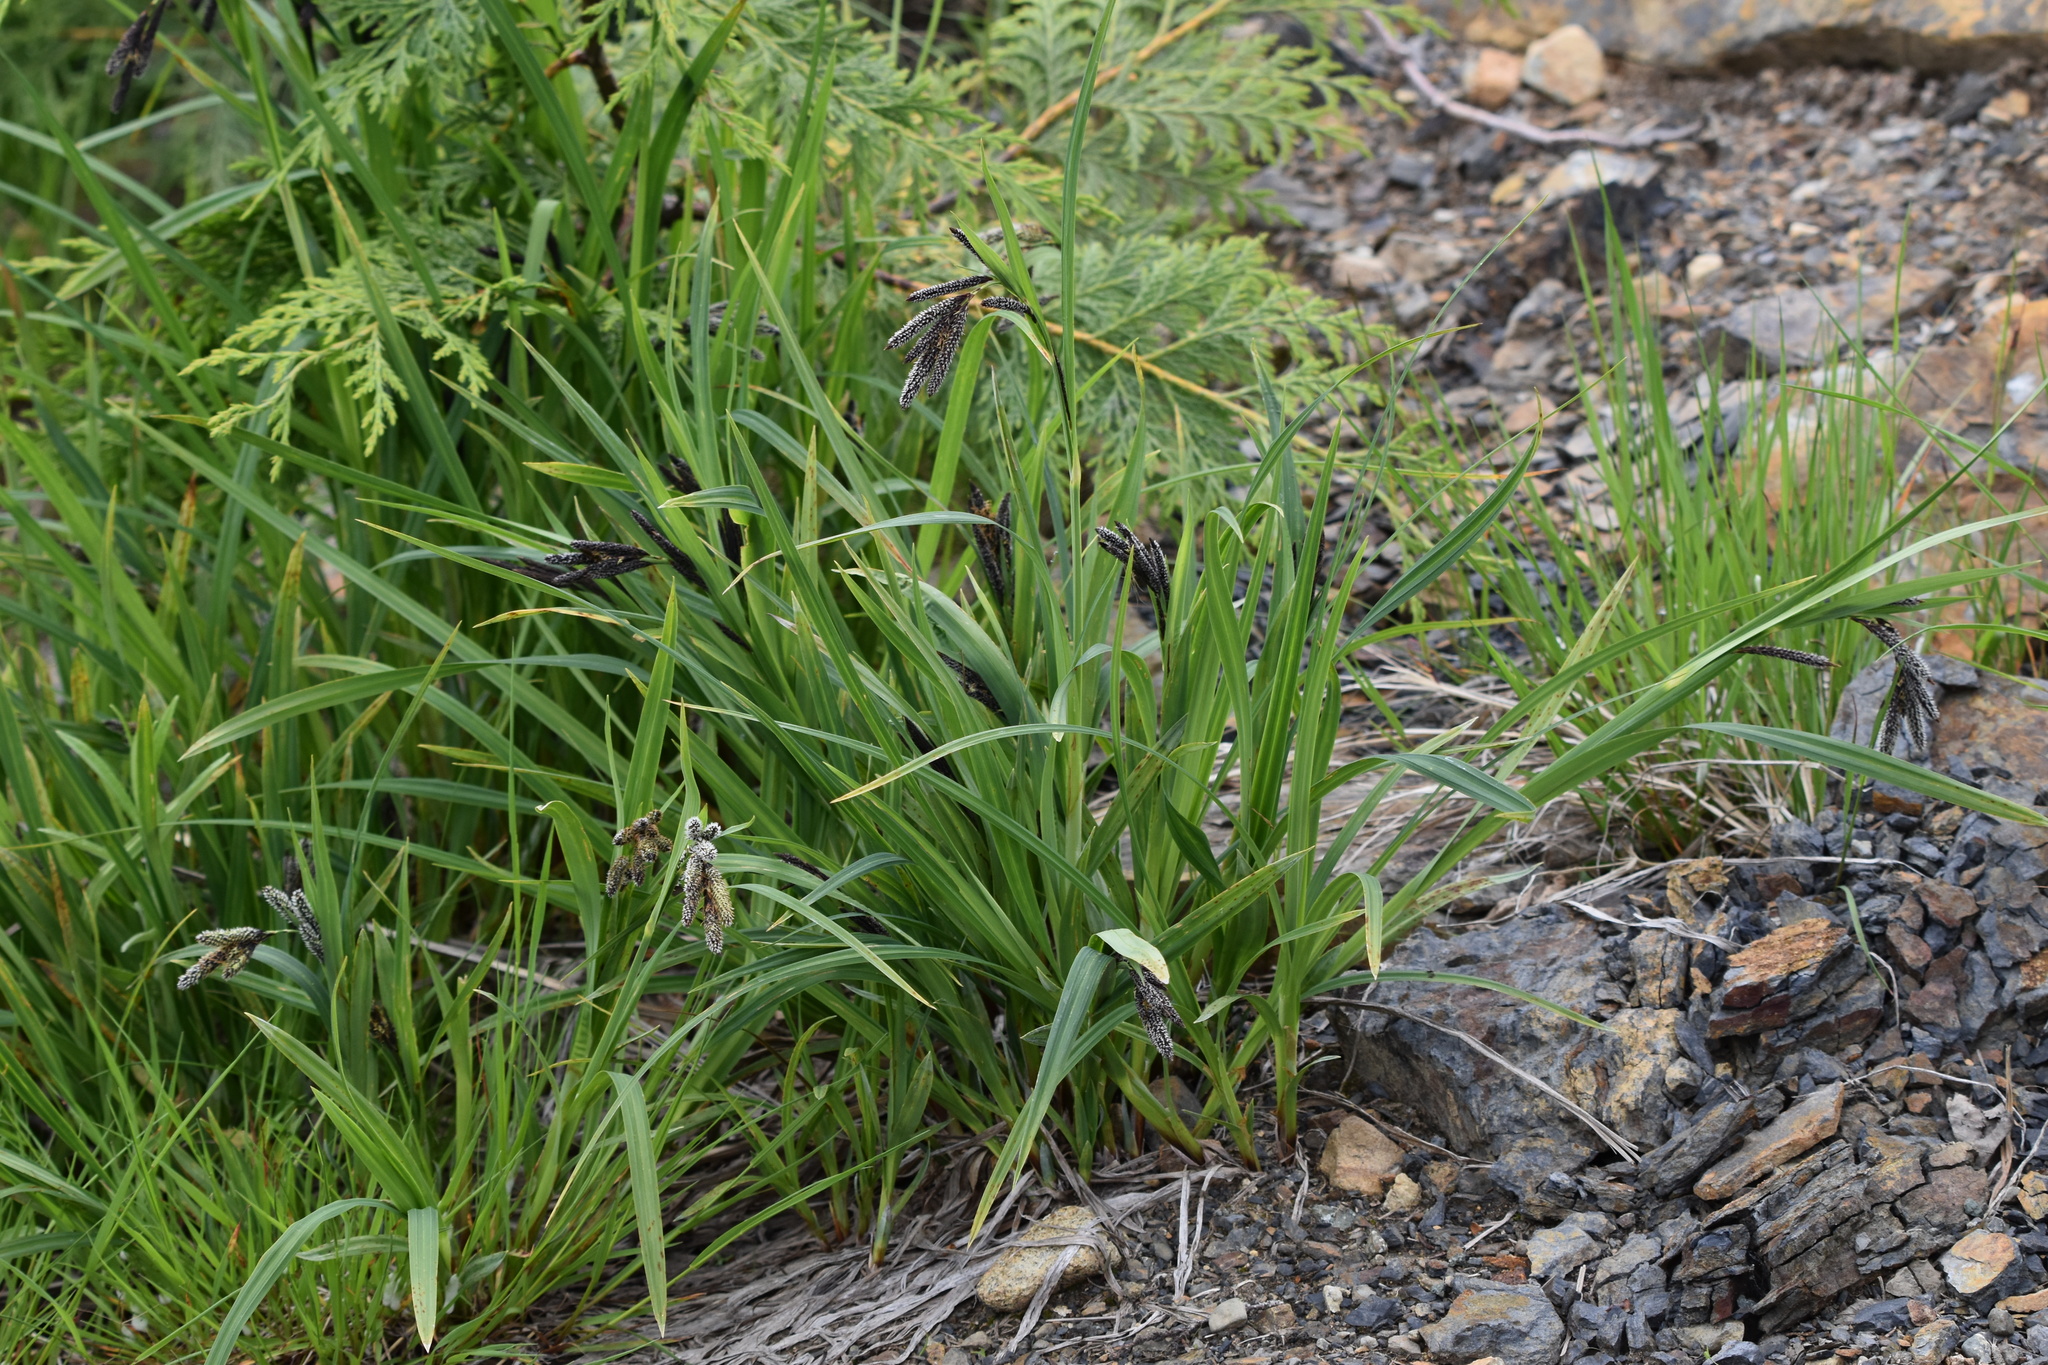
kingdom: Plantae
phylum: Tracheophyta
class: Liliopsida
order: Poales
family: Cyperaceae
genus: Carex
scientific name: Carex mertensii
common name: Mertens' sedge
